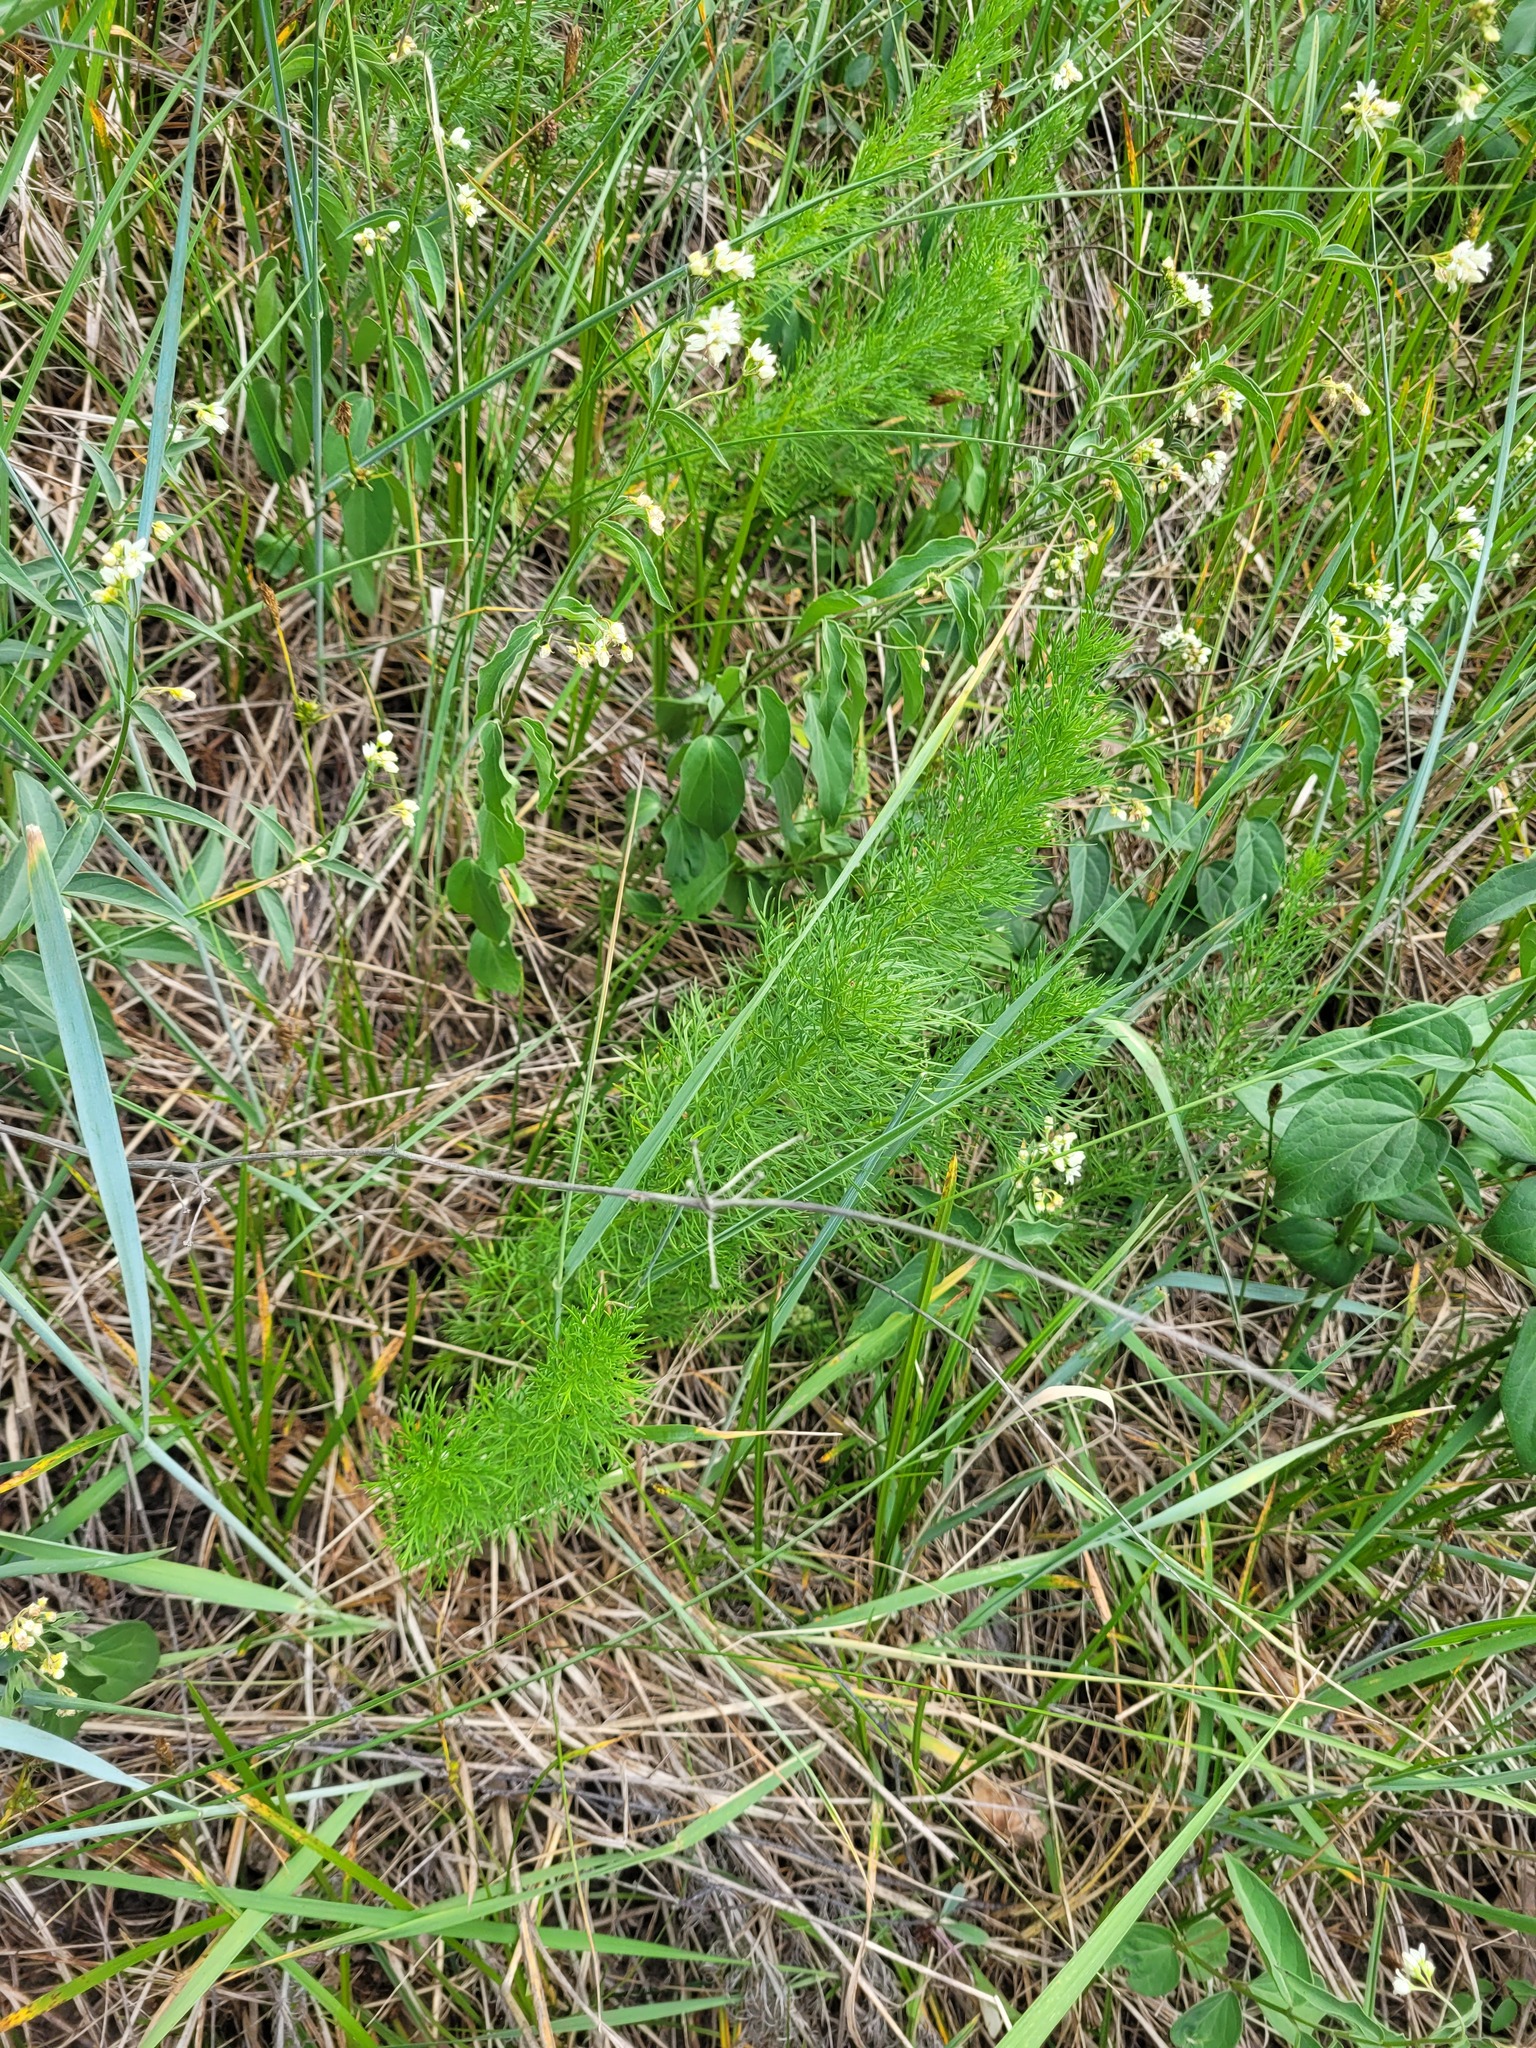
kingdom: Plantae
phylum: Tracheophyta
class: Magnoliopsida
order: Ranunculales
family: Ranunculaceae
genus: Adonis
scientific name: Adonis vernalis
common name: Yellow pheasants-eye
